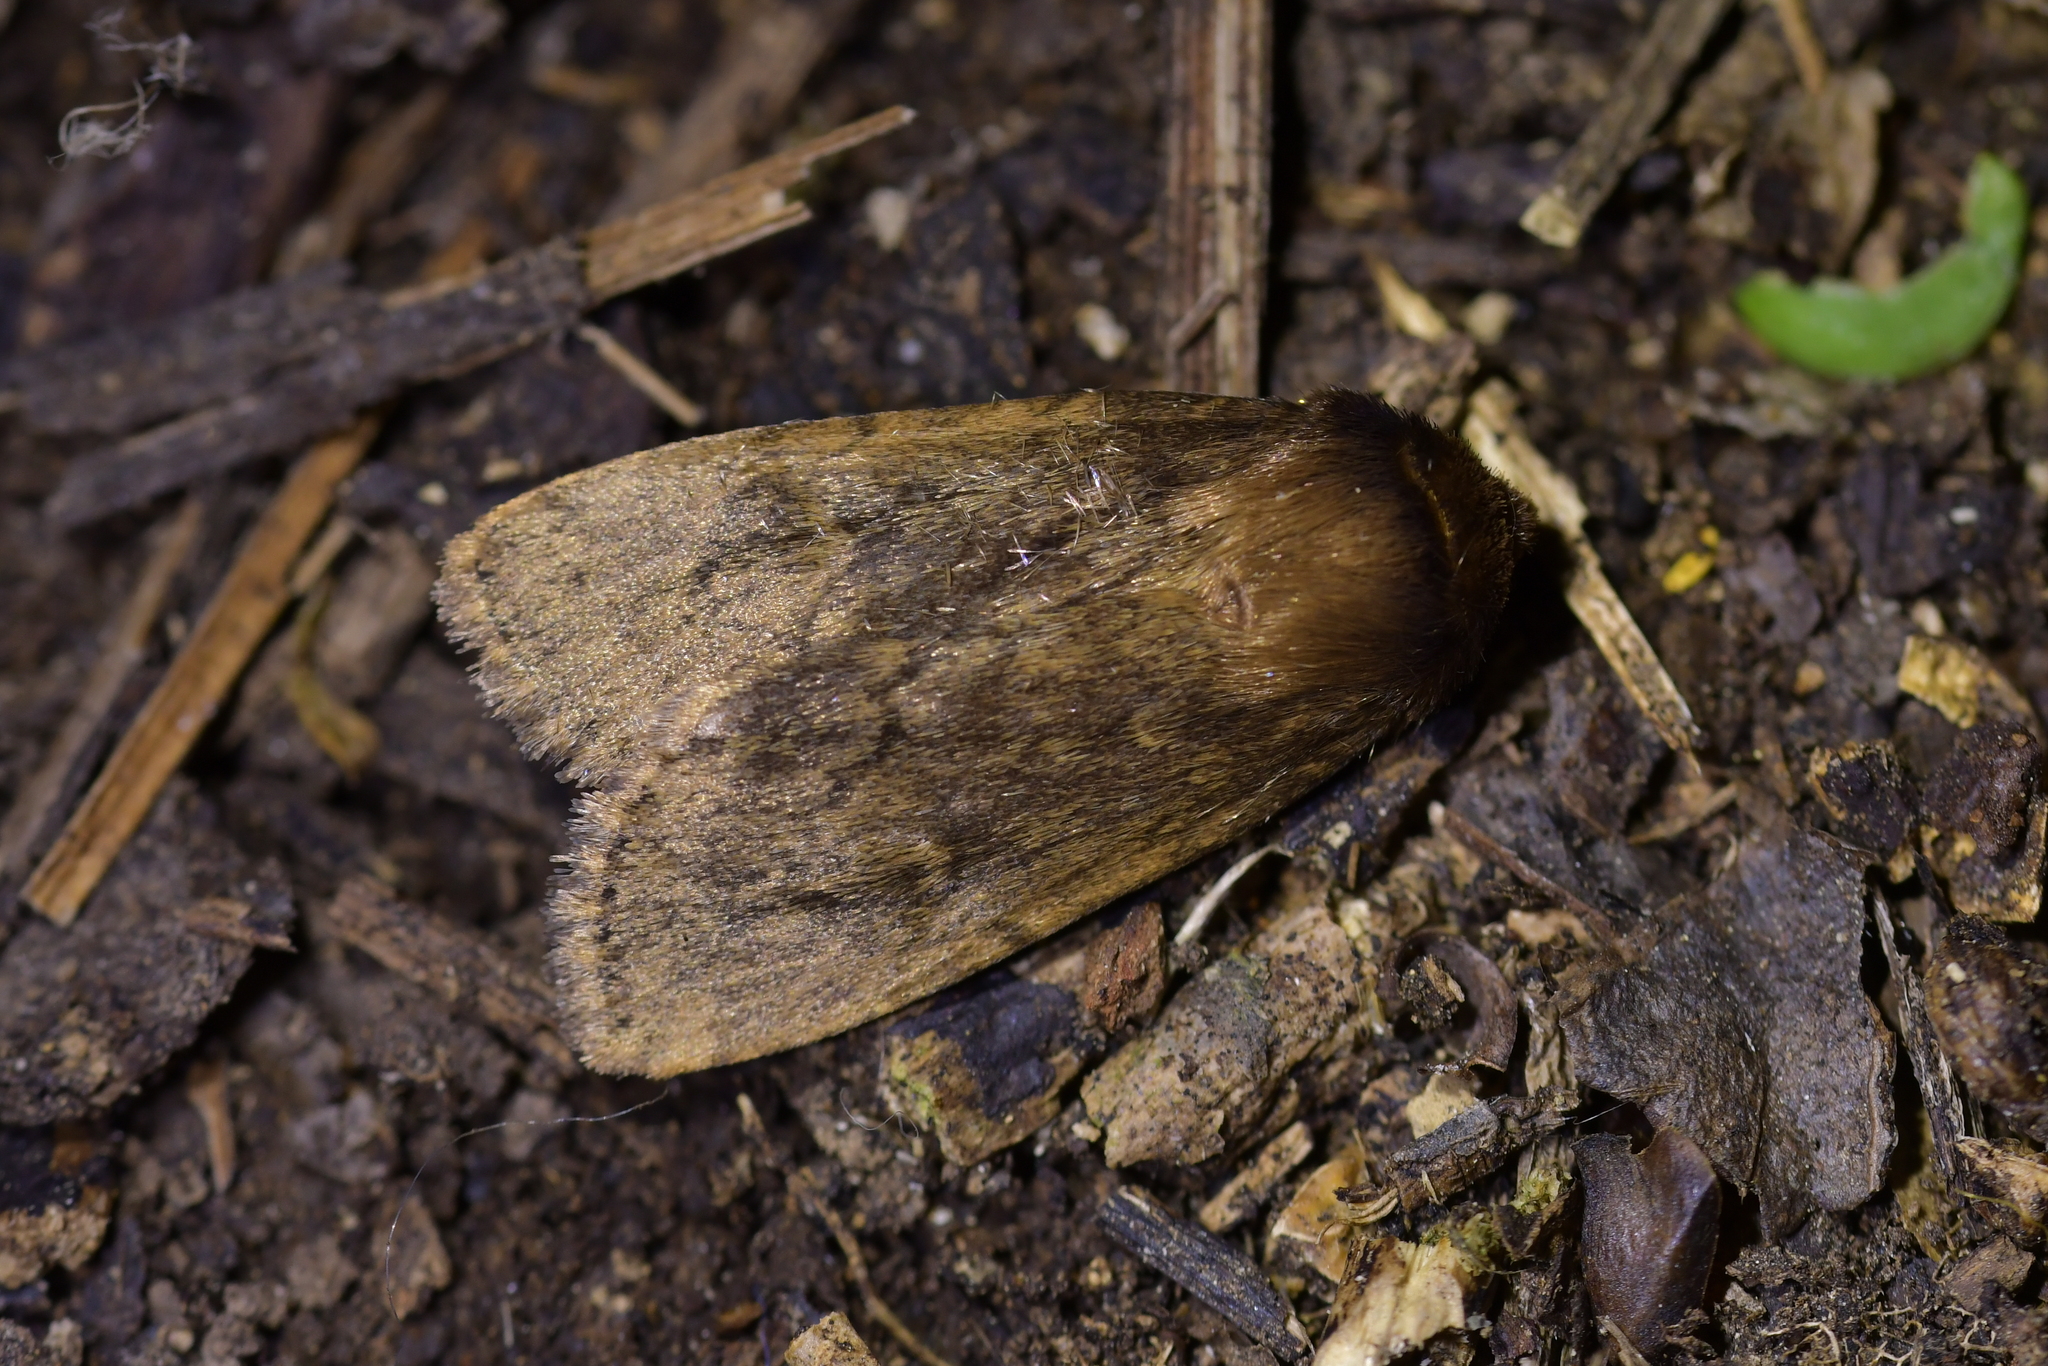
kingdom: Animalia
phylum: Arthropoda
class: Insecta
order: Lepidoptera
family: Noctuidae
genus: Bityla
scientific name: Bityla defigurata
